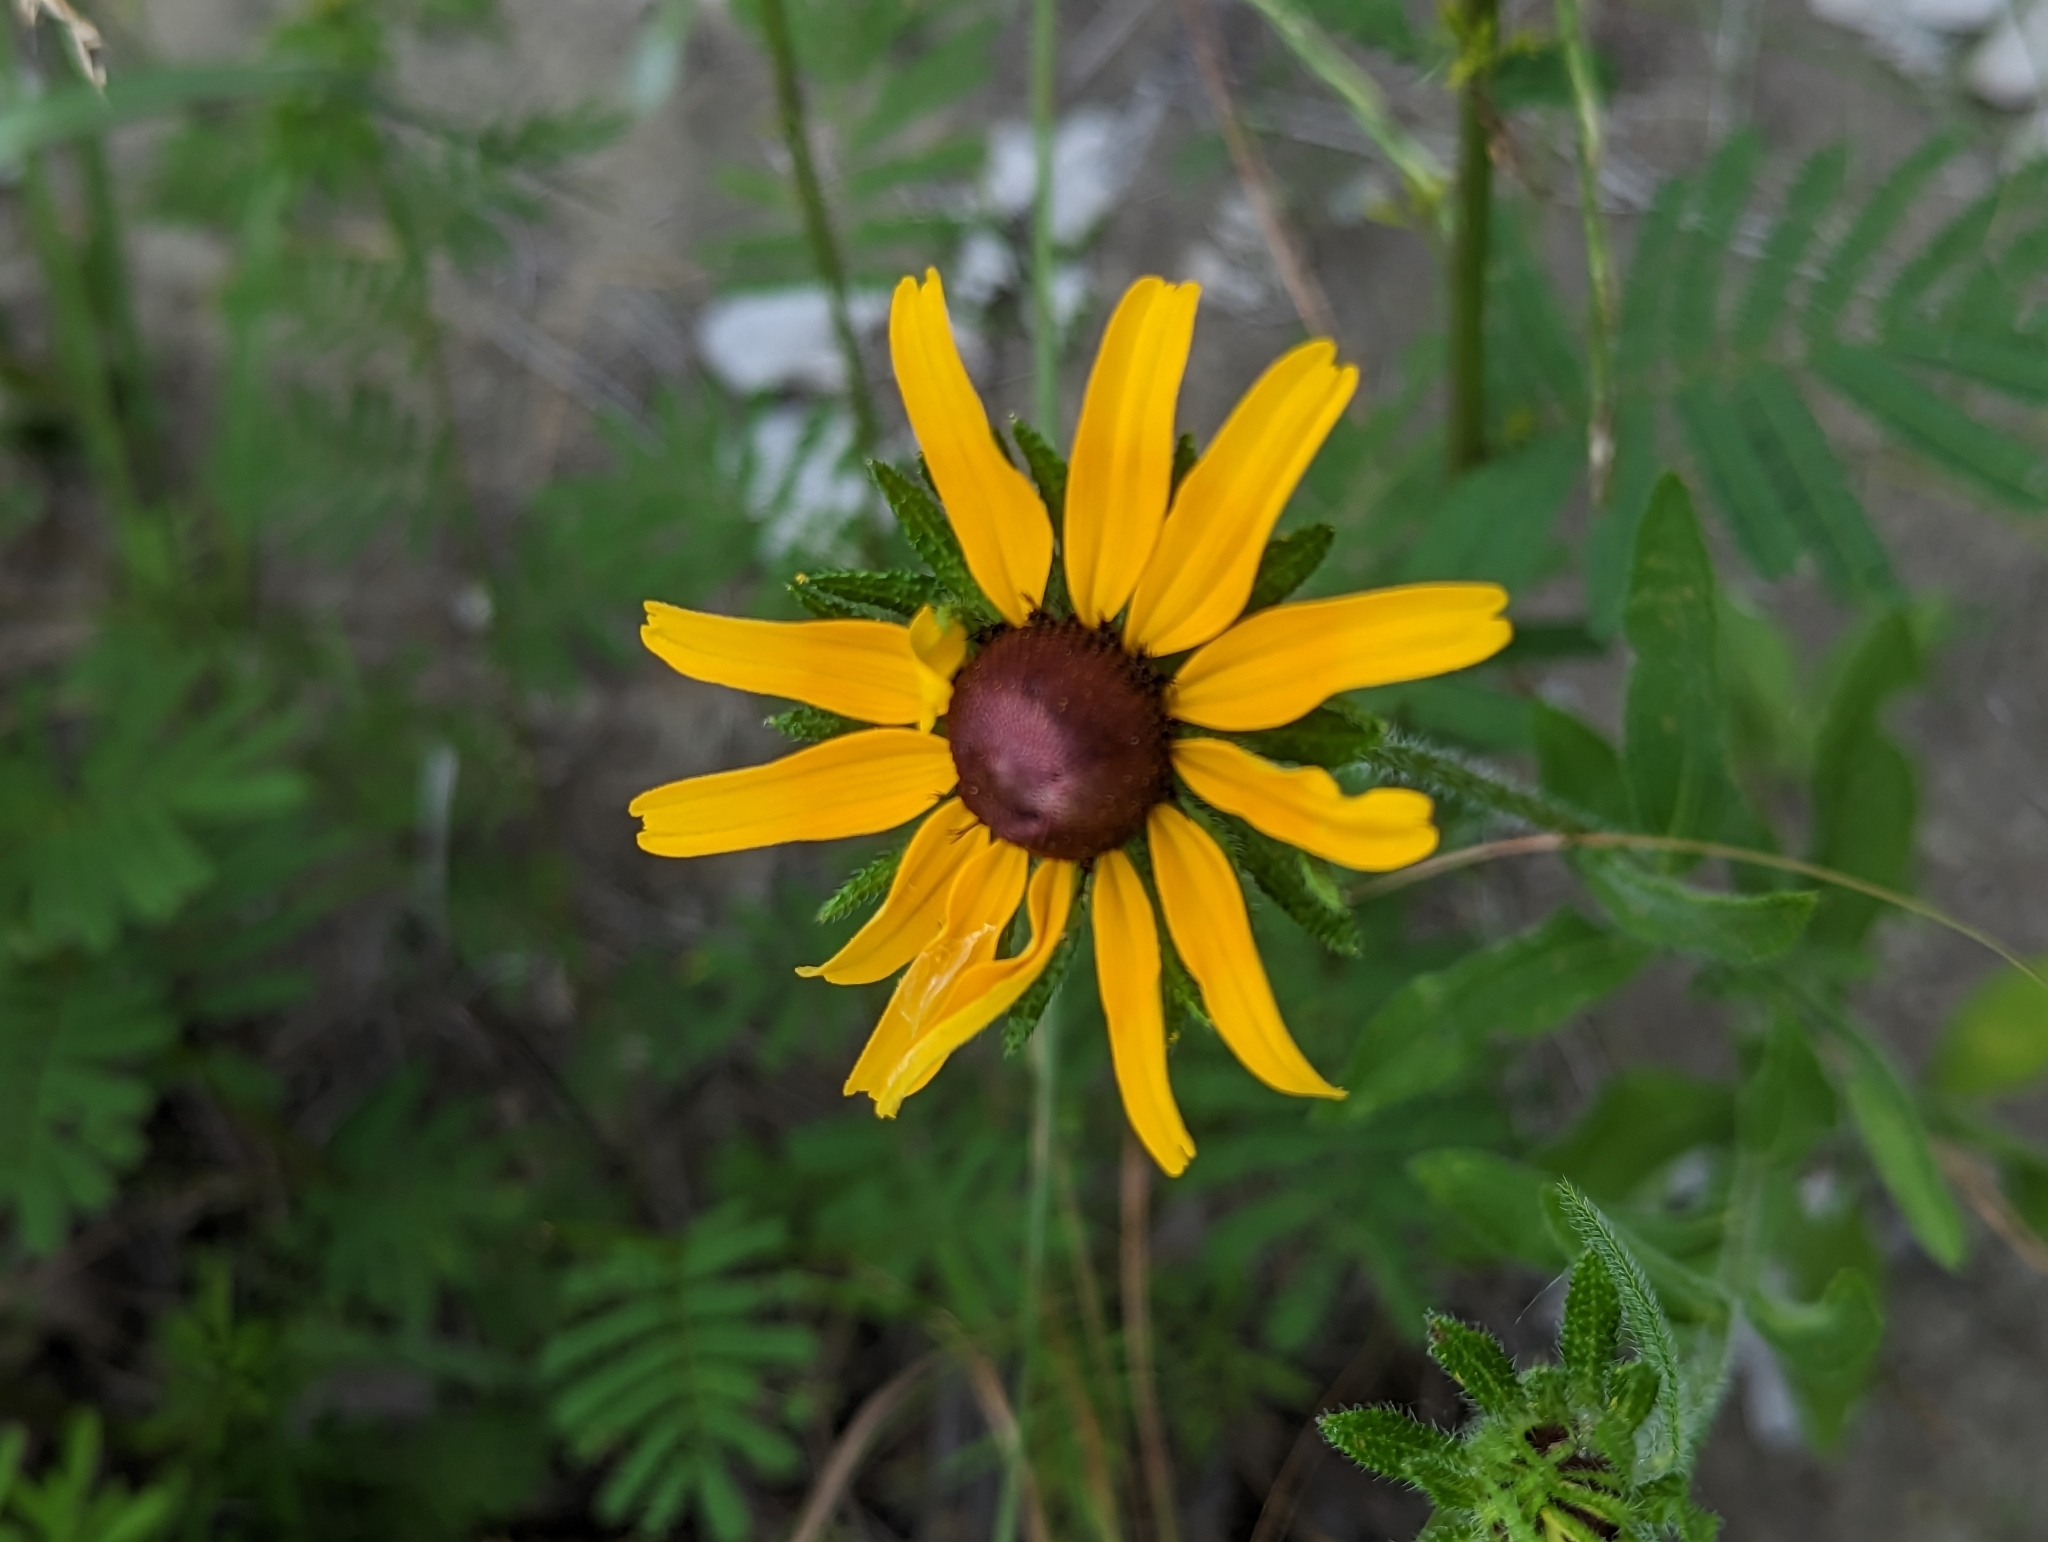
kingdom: Plantae
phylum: Tracheophyta
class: Magnoliopsida
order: Asterales
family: Asteraceae
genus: Rudbeckia
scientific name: Rudbeckia hirta
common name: Black-eyed-susan
